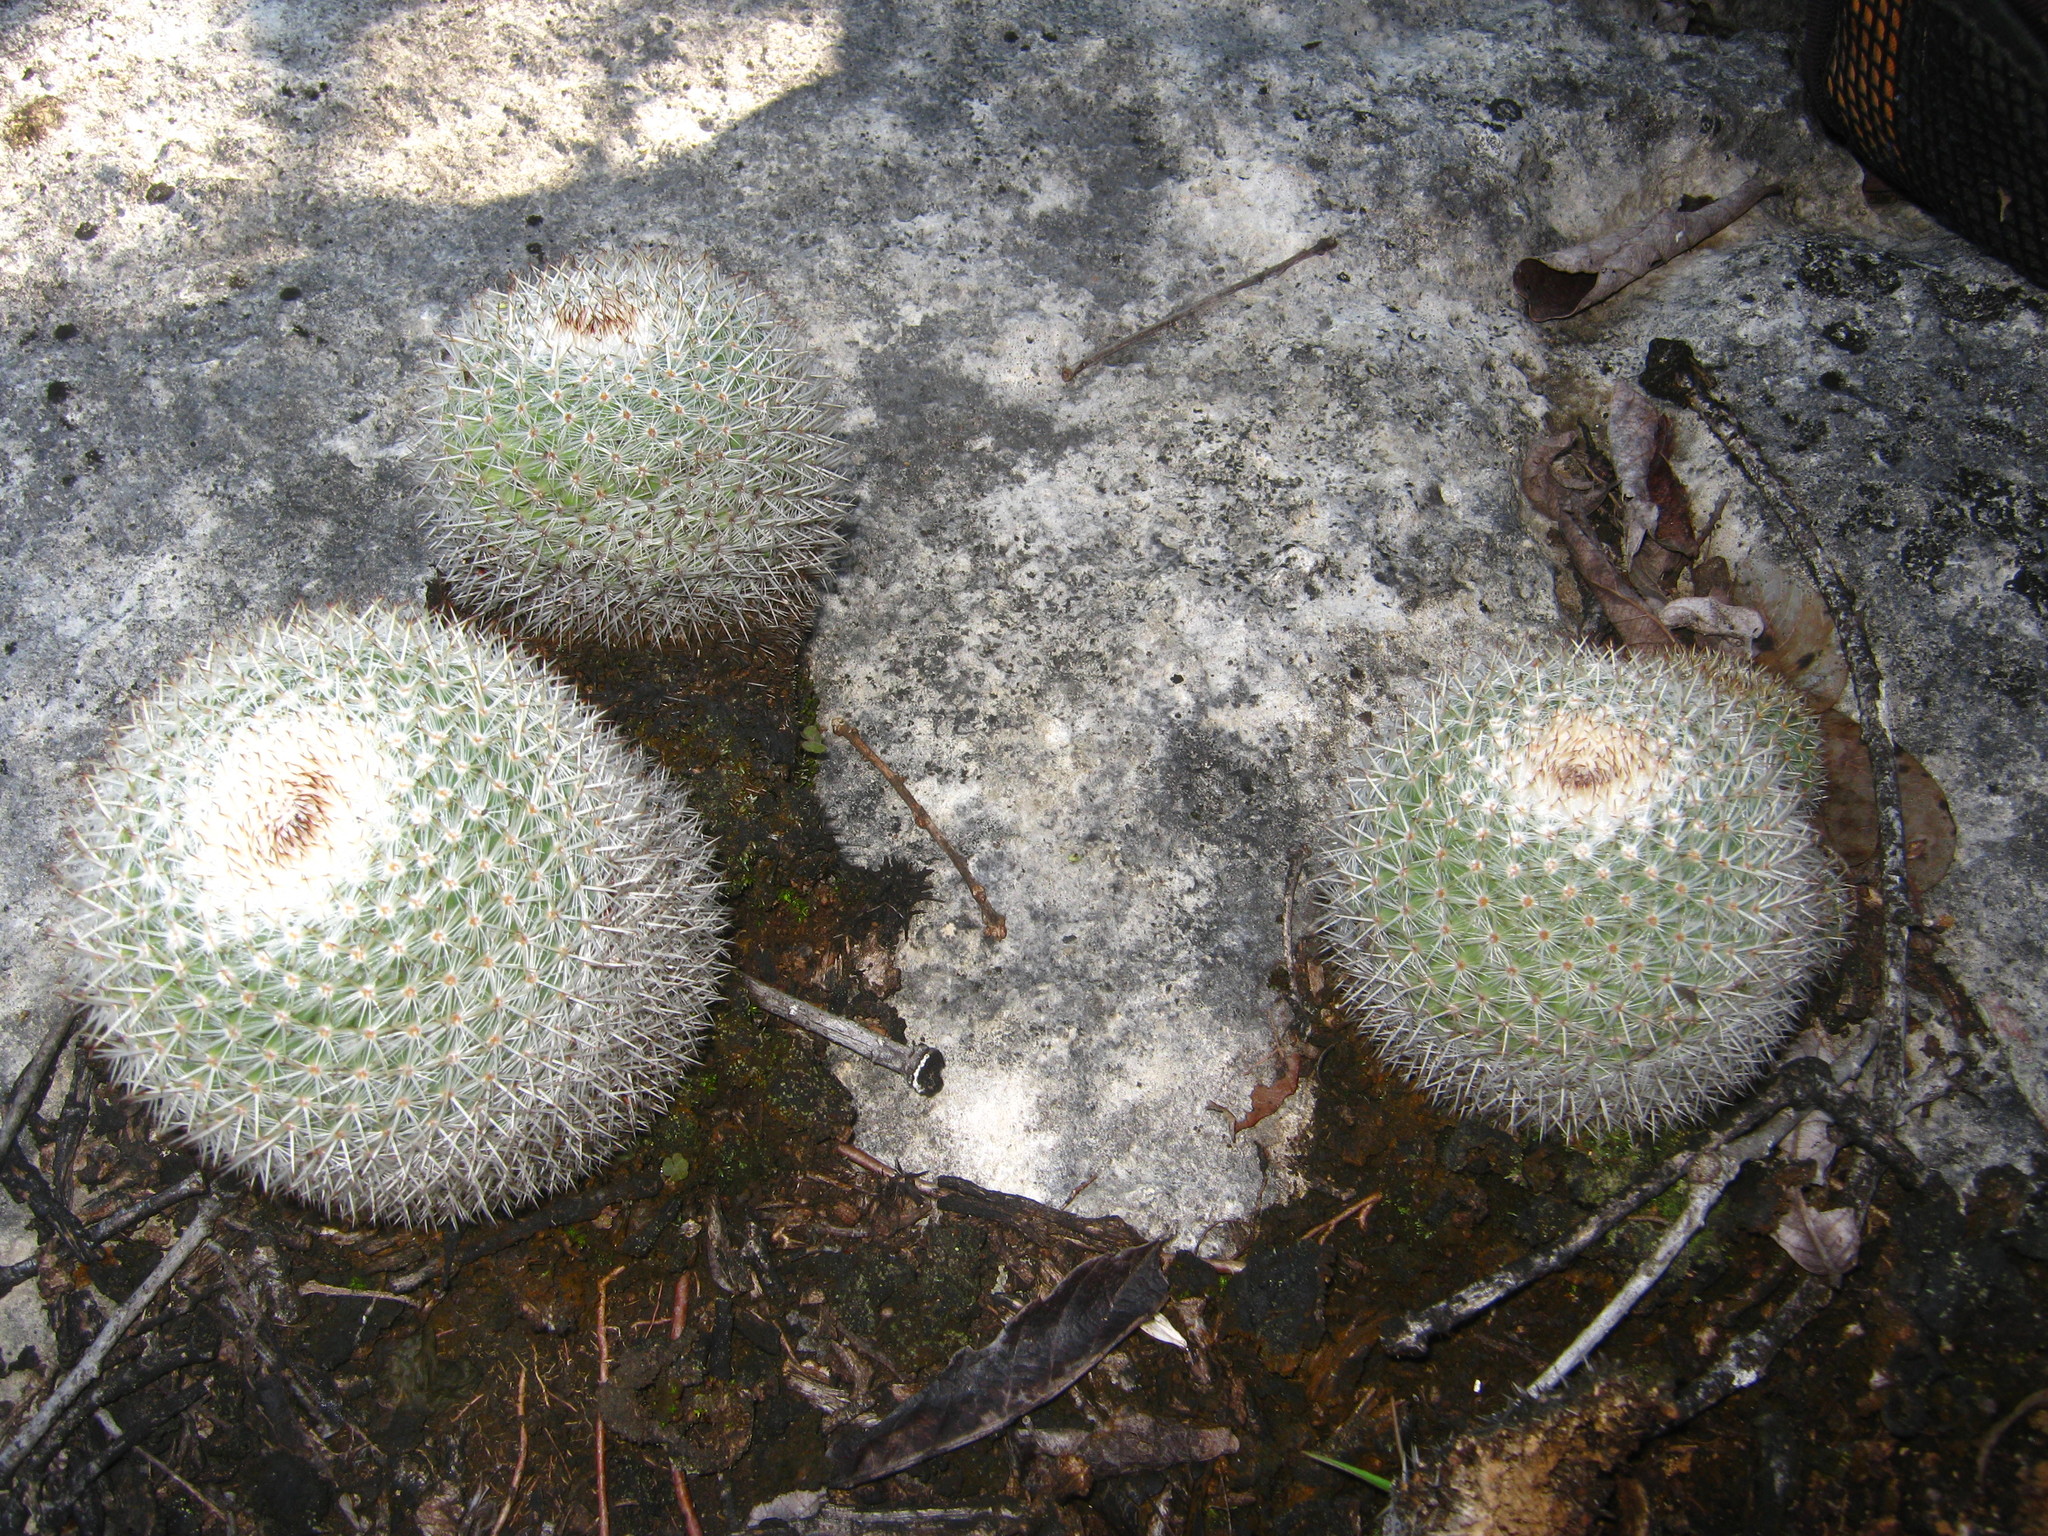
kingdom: Plantae
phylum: Tracheophyta
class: Magnoliopsida
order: Caryophyllales
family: Cactaceae
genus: Mammillaria
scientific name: Mammillaria albilanata
